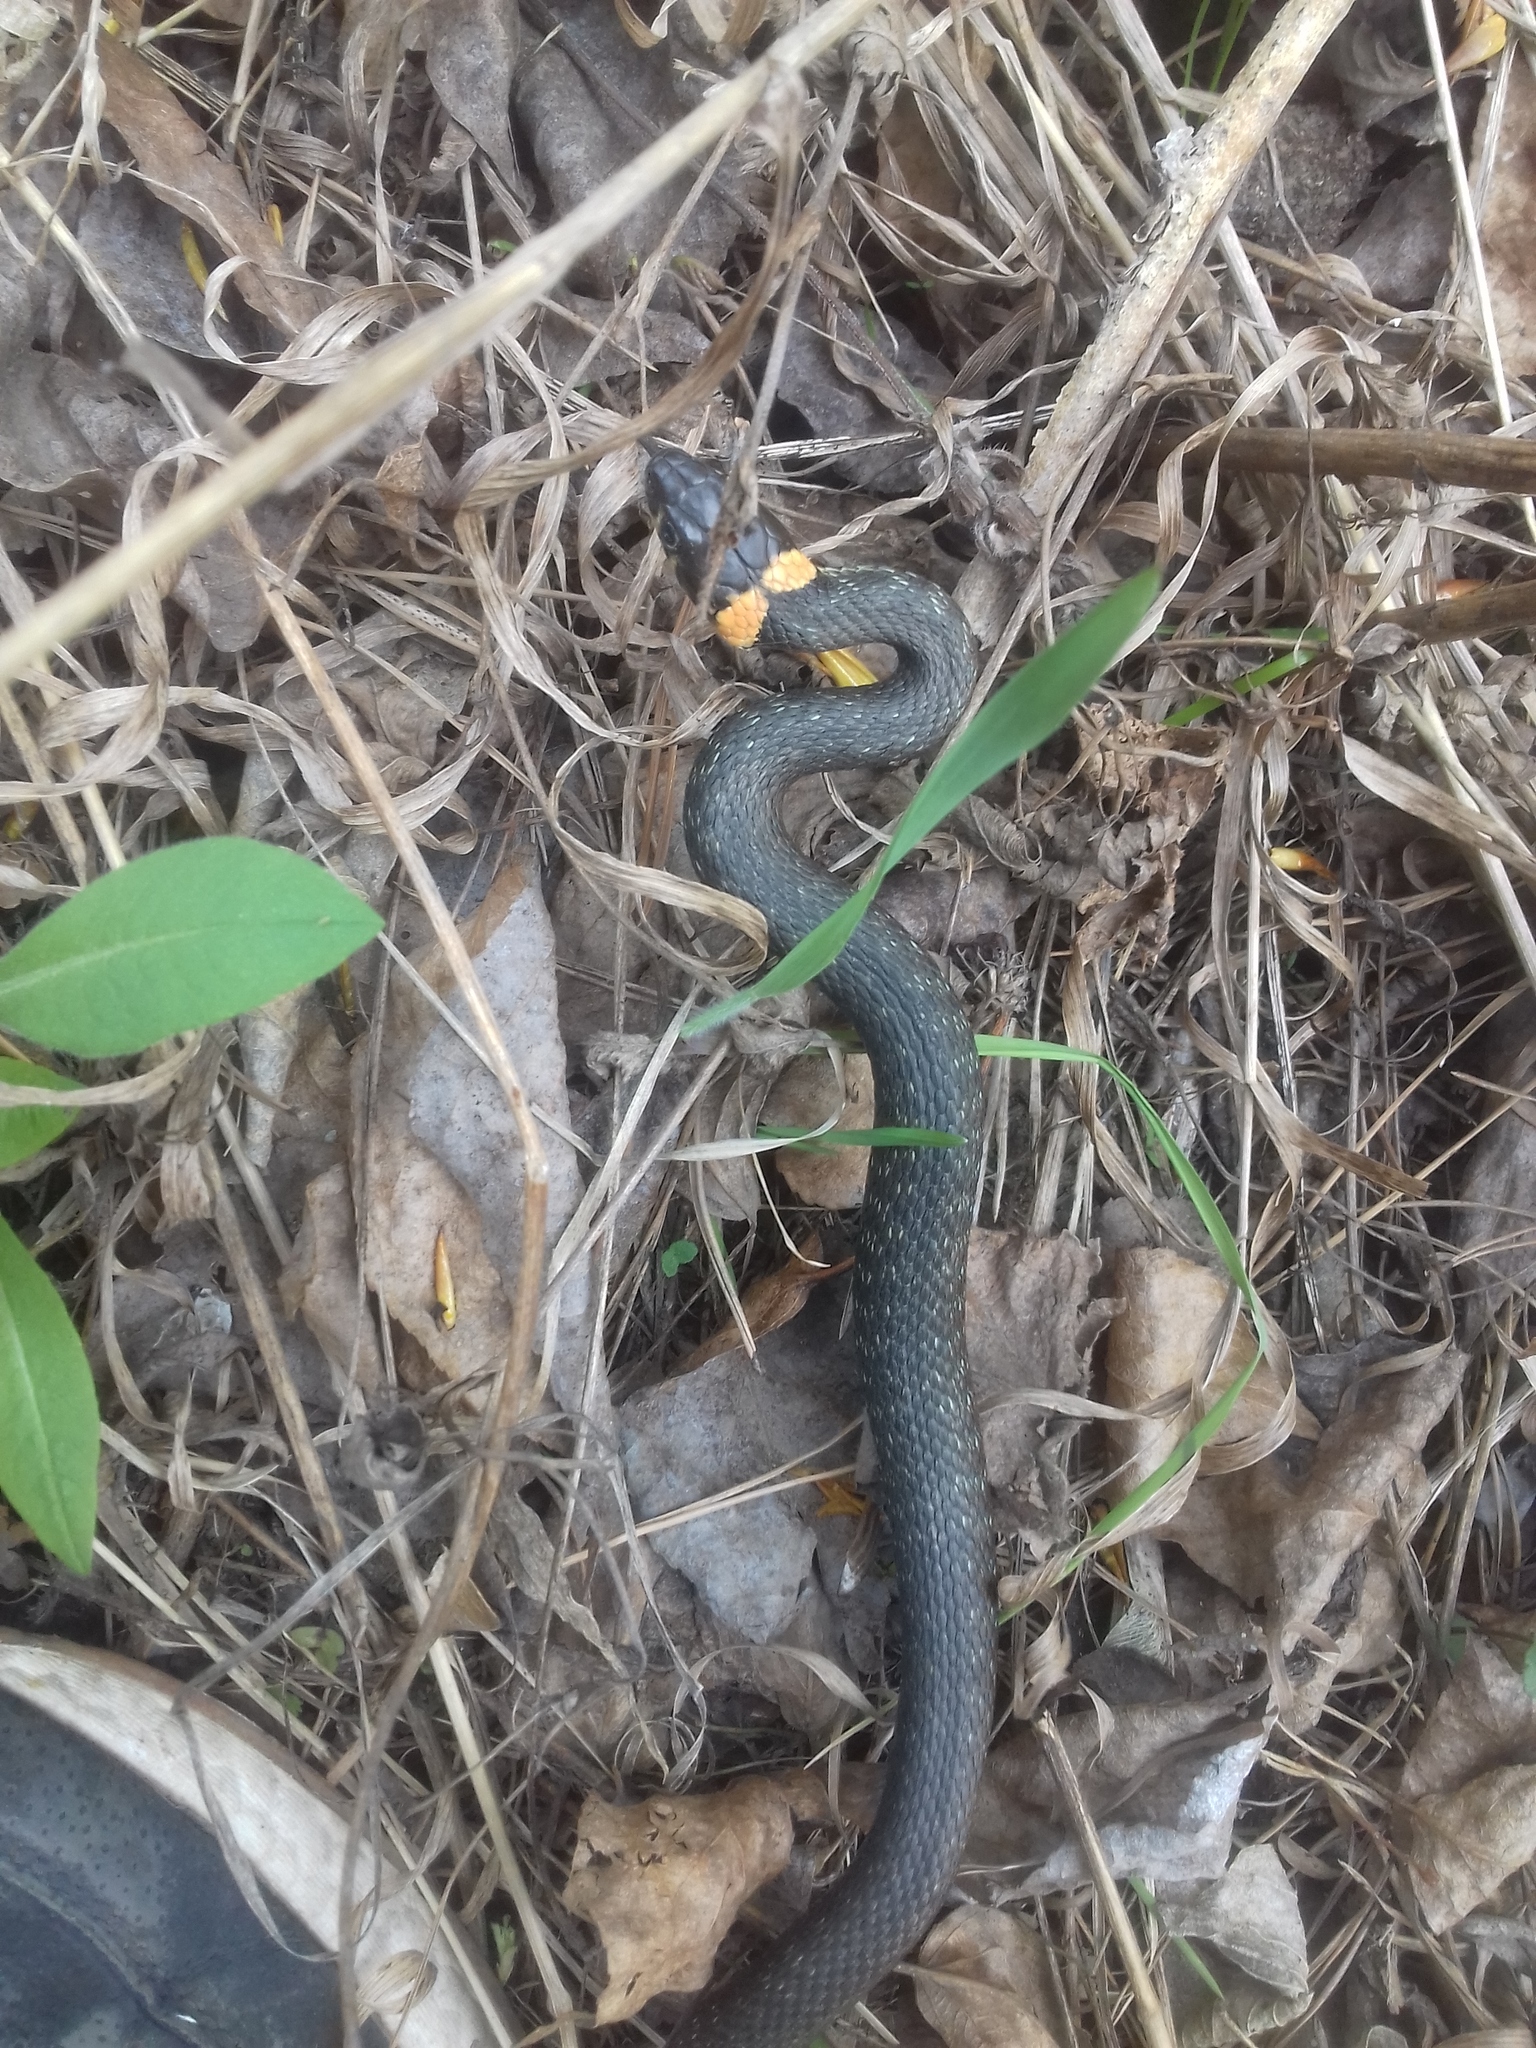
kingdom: Animalia
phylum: Chordata
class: Squamata
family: Colubridae
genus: Natrix
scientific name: Natrix natrix
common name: Grass snake
